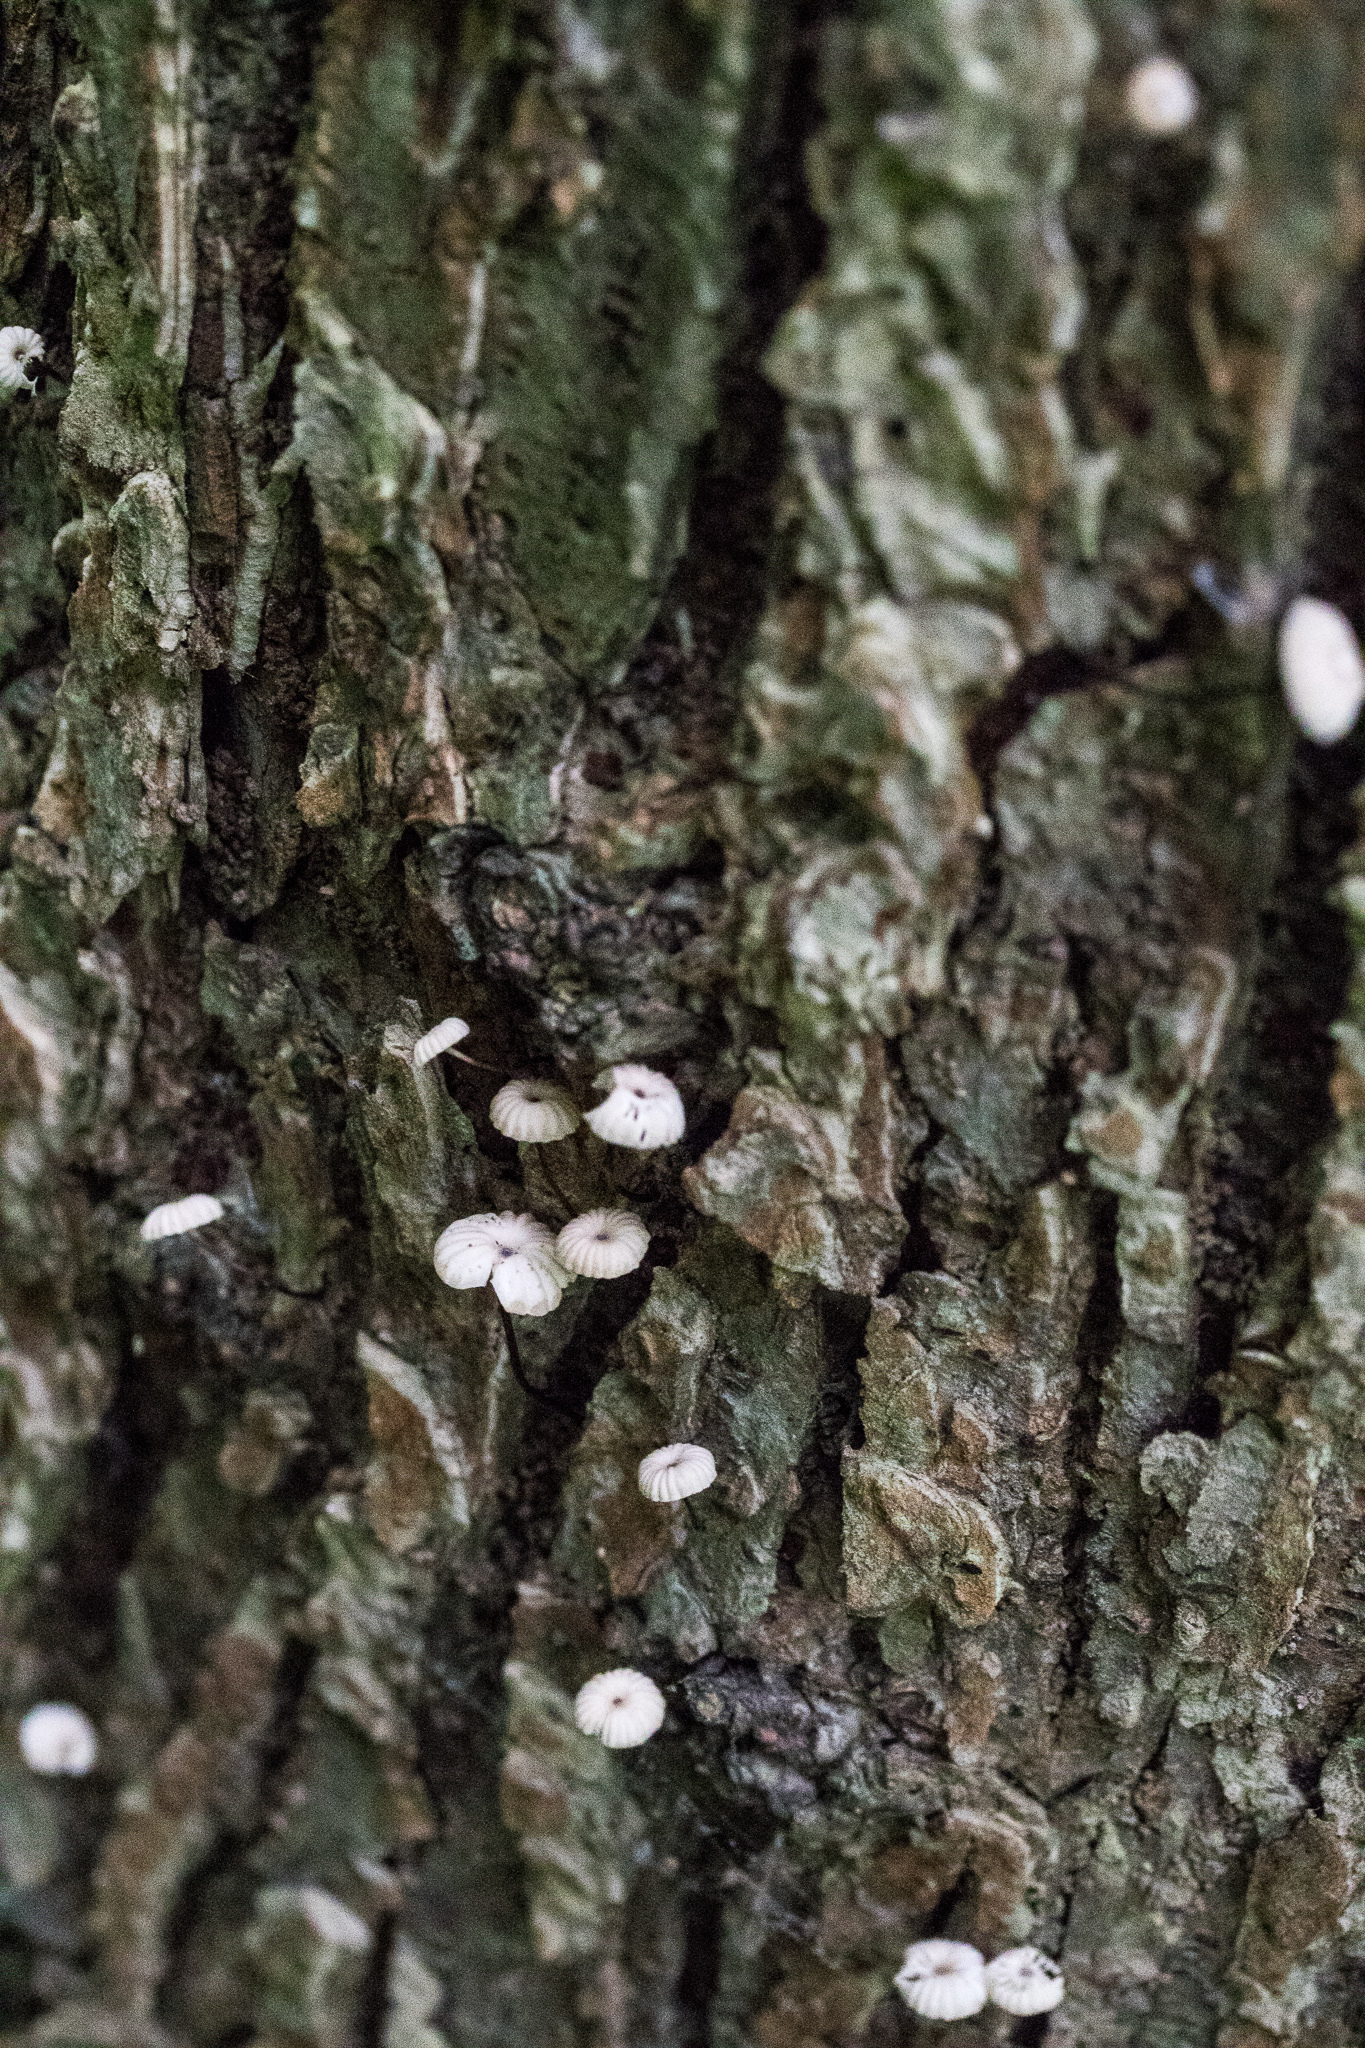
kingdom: Fungi
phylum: Basidiomycota
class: Agaricomycetes
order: Agaricales
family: Marasmiaceae
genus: Marasmius
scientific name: Marasmius rotula
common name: Collared parachute
